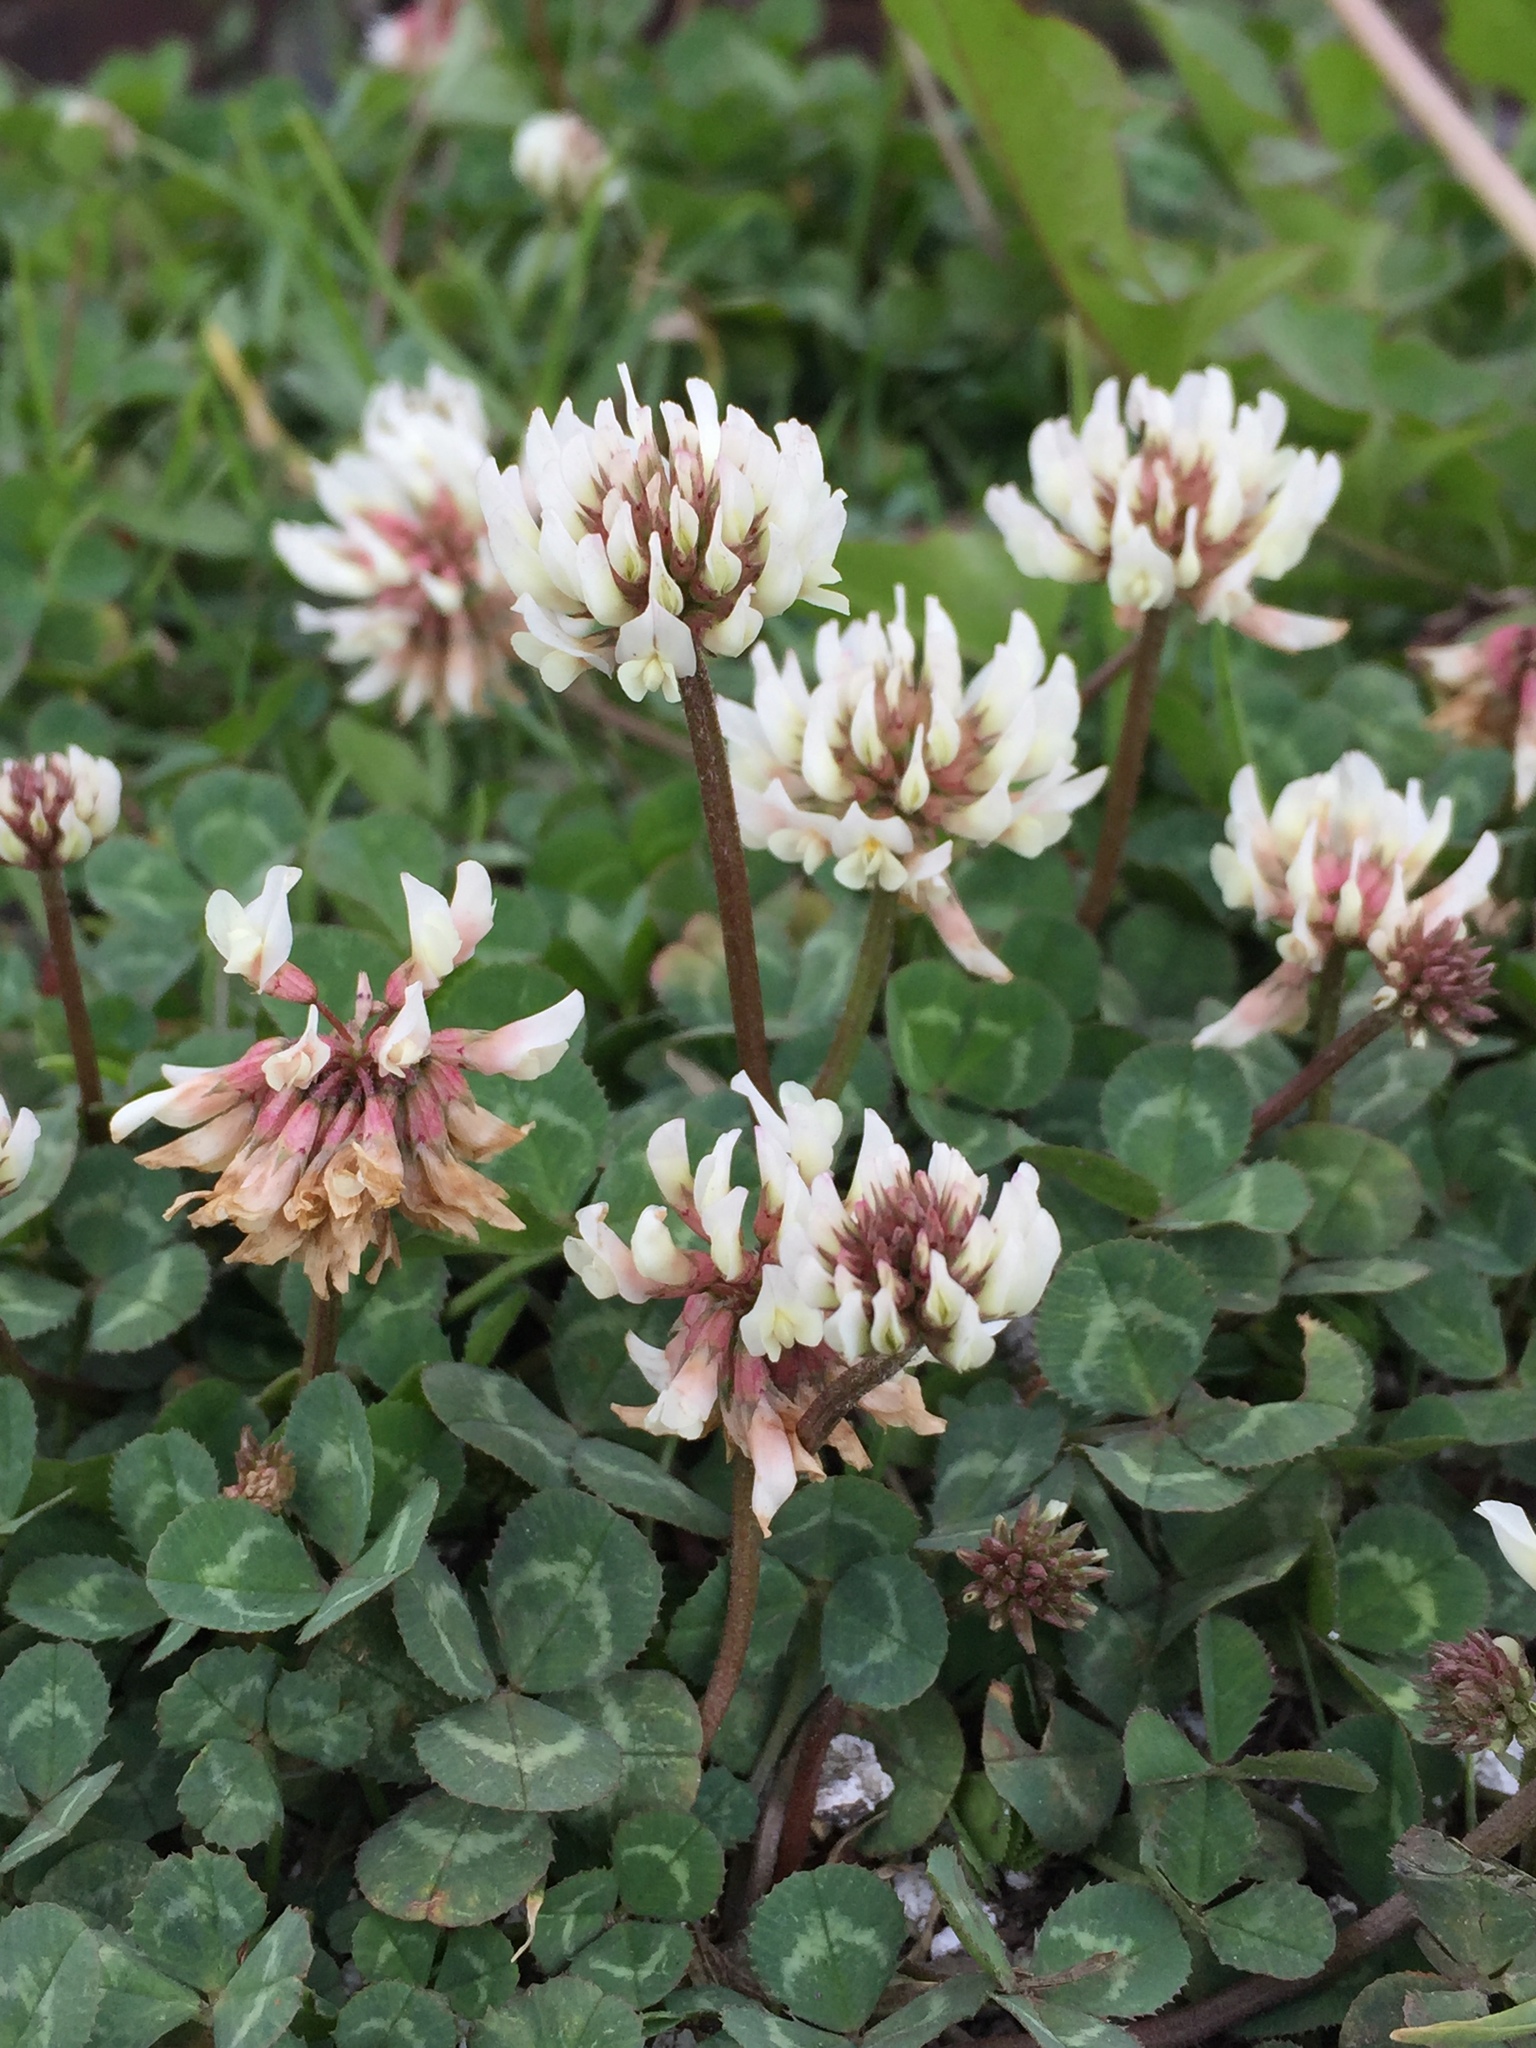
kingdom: Plantae
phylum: Tracheophyta
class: Magnoliopsida
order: Fabales
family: Fabaceae
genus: Trifolium
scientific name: Trifolium repens
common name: White clover
